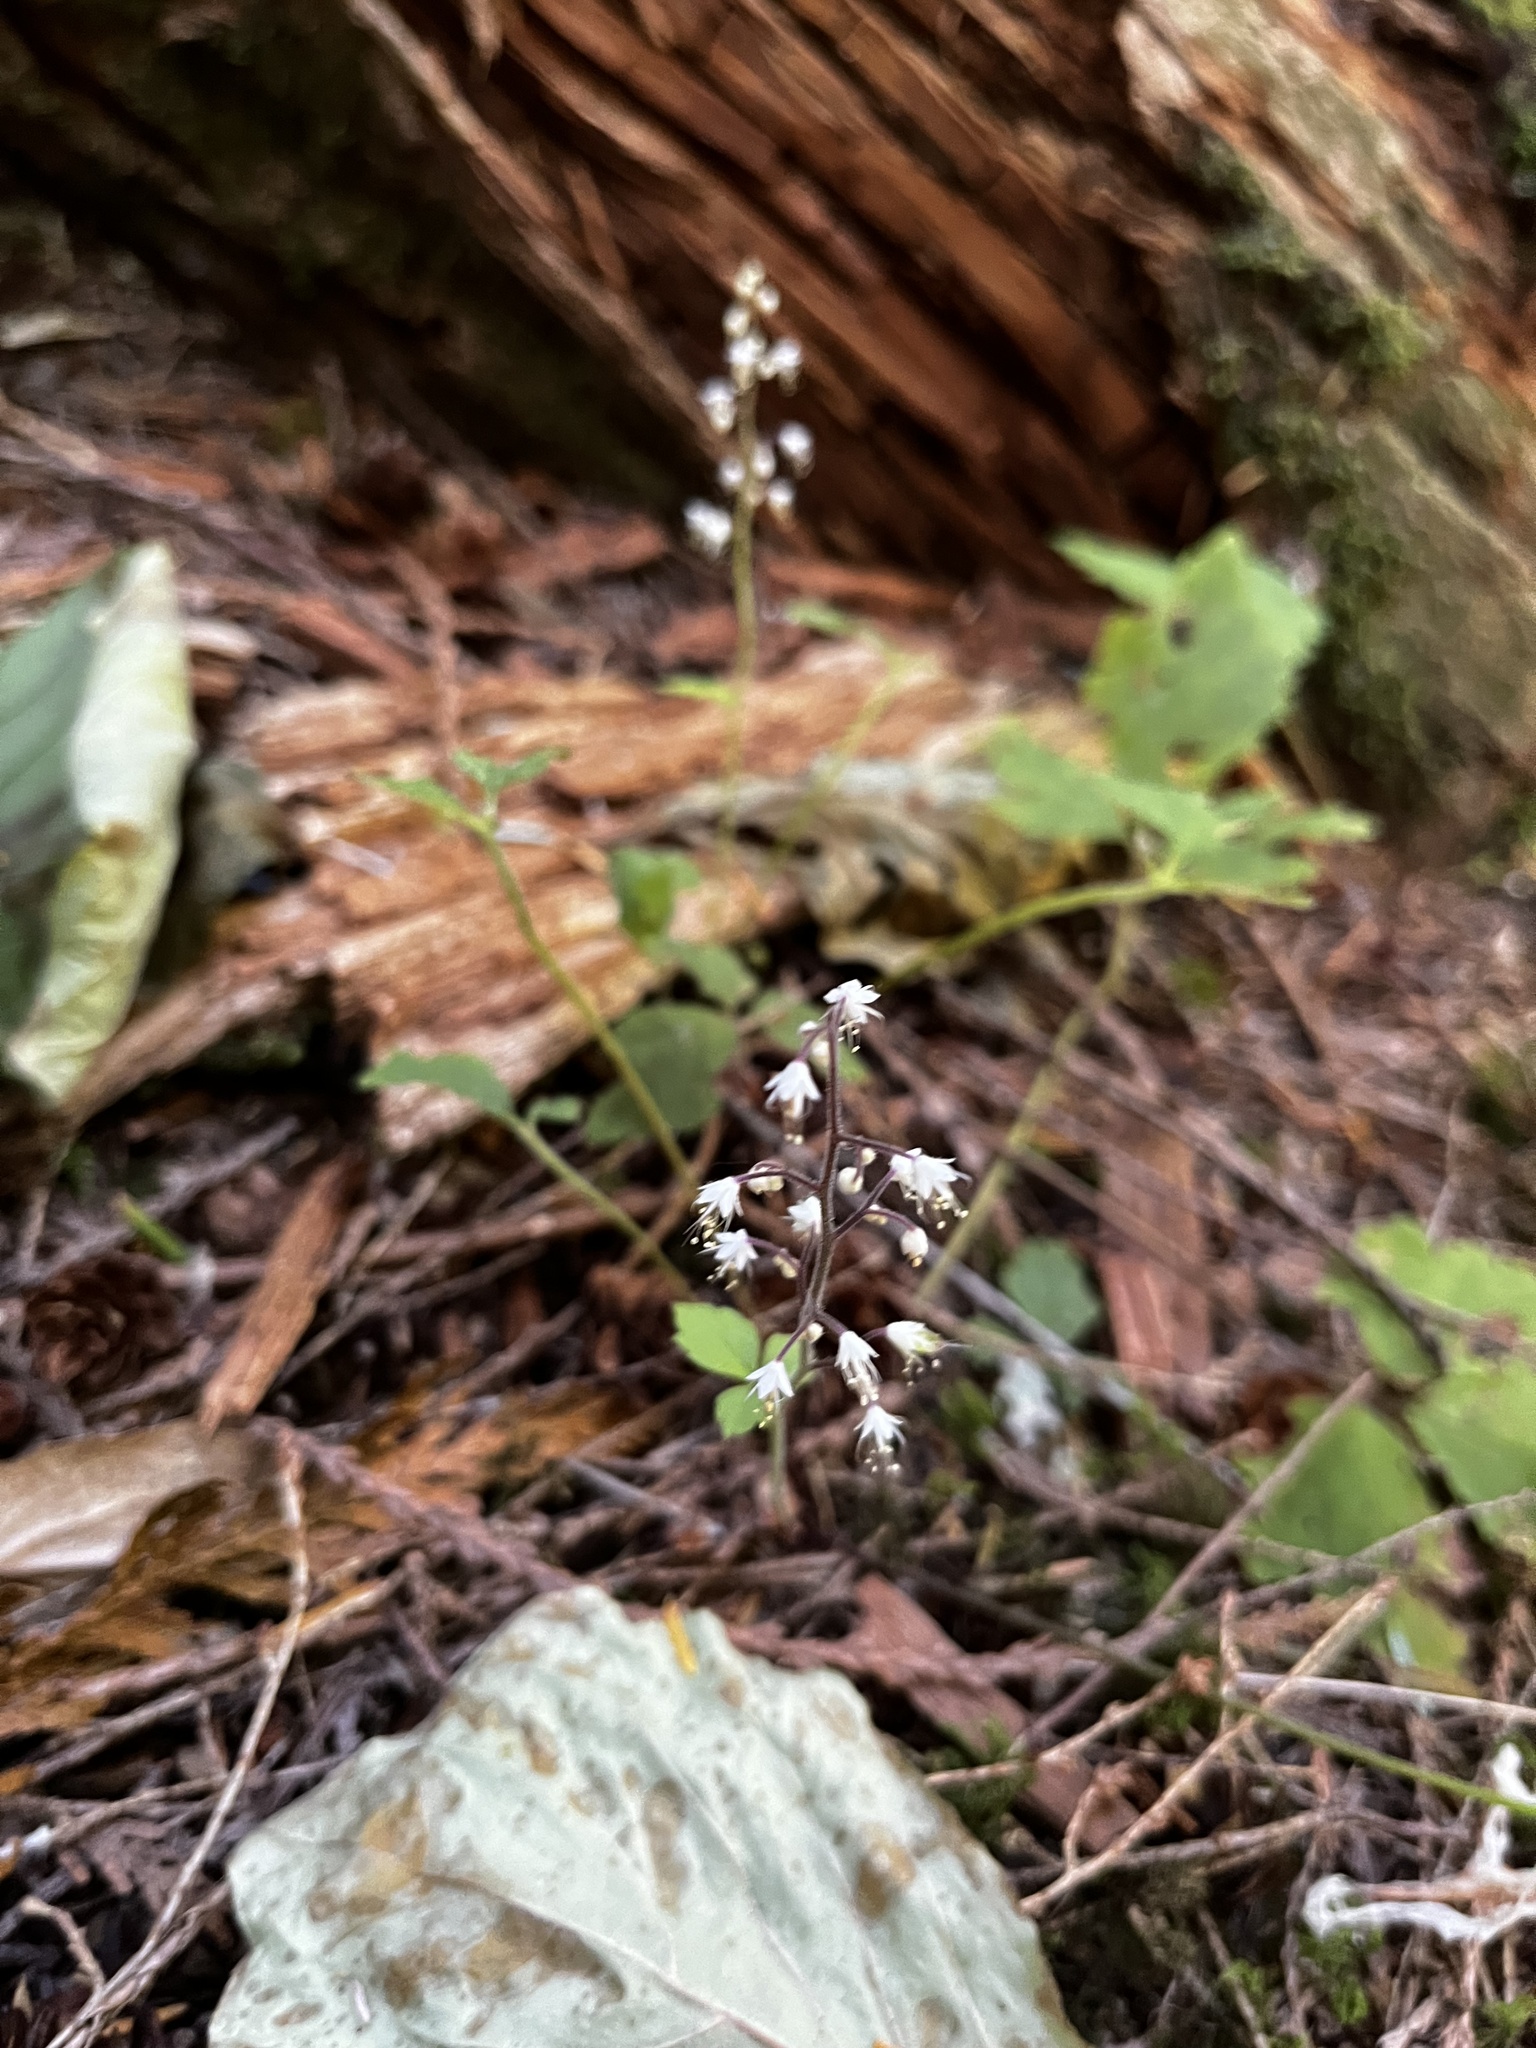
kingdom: Plantae
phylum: Tracheophyta
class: Magnoliopsida
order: Saxifragales
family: Saxifragaceae
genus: Tiarella
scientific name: Tiarella trifoliata
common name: Sugar-scoop
